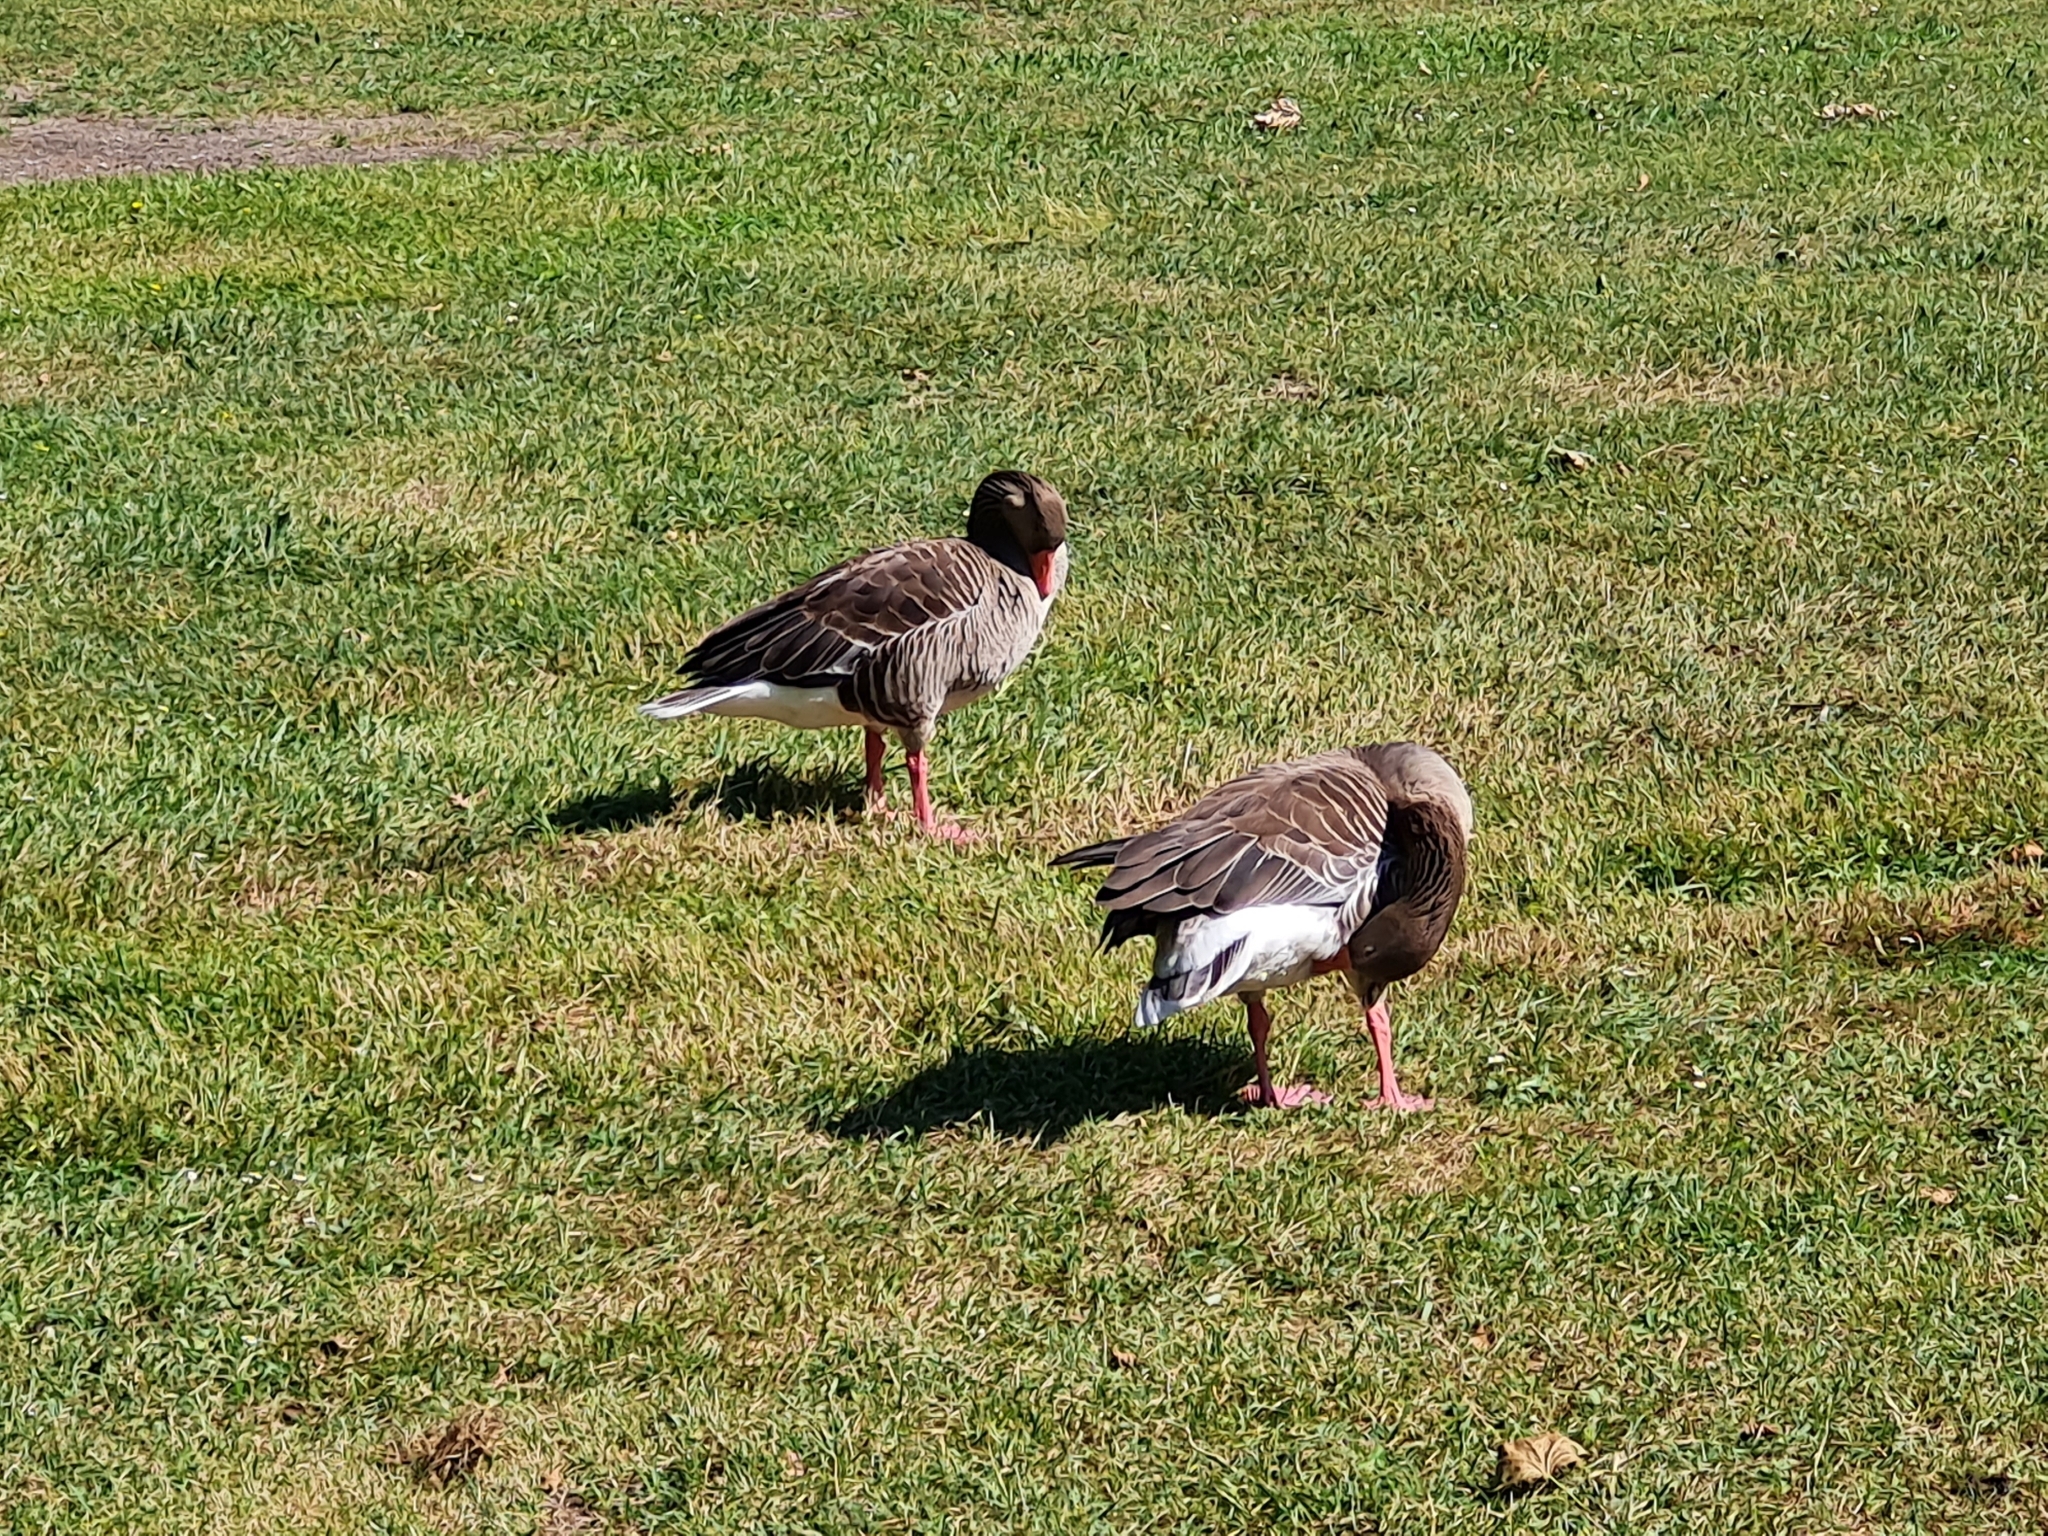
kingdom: Animalia
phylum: Chordata
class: Aves
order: Anseriformes
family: Anatidae
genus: Anser
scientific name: Anser anser
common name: Greylag goose
